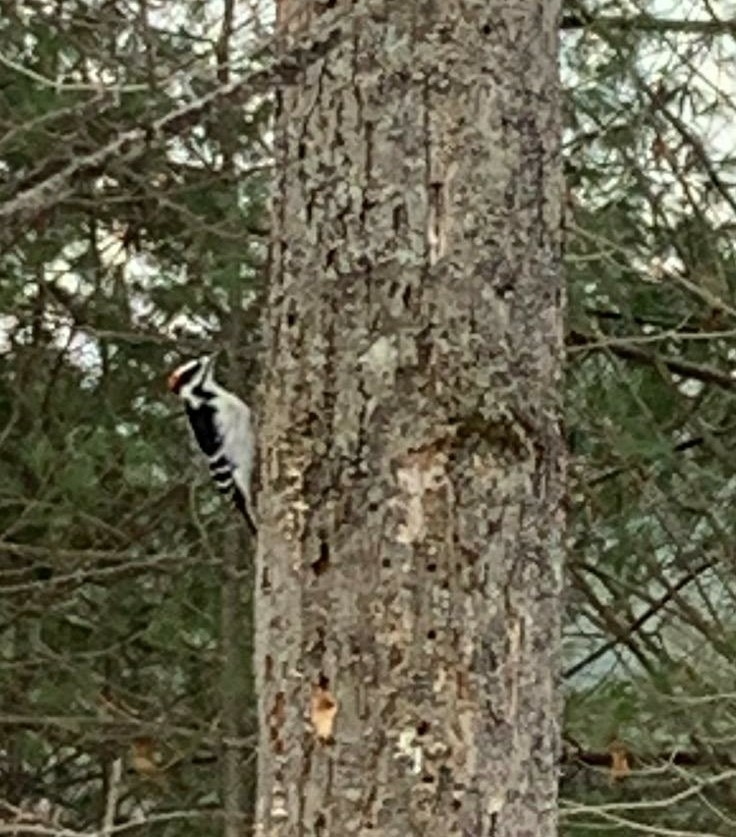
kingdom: Animalia
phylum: Chordata
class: Aves
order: Piciformes
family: Picidae
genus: Leuconotopicus
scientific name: Leuconotopicus villosus
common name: Hairy woodpecker
